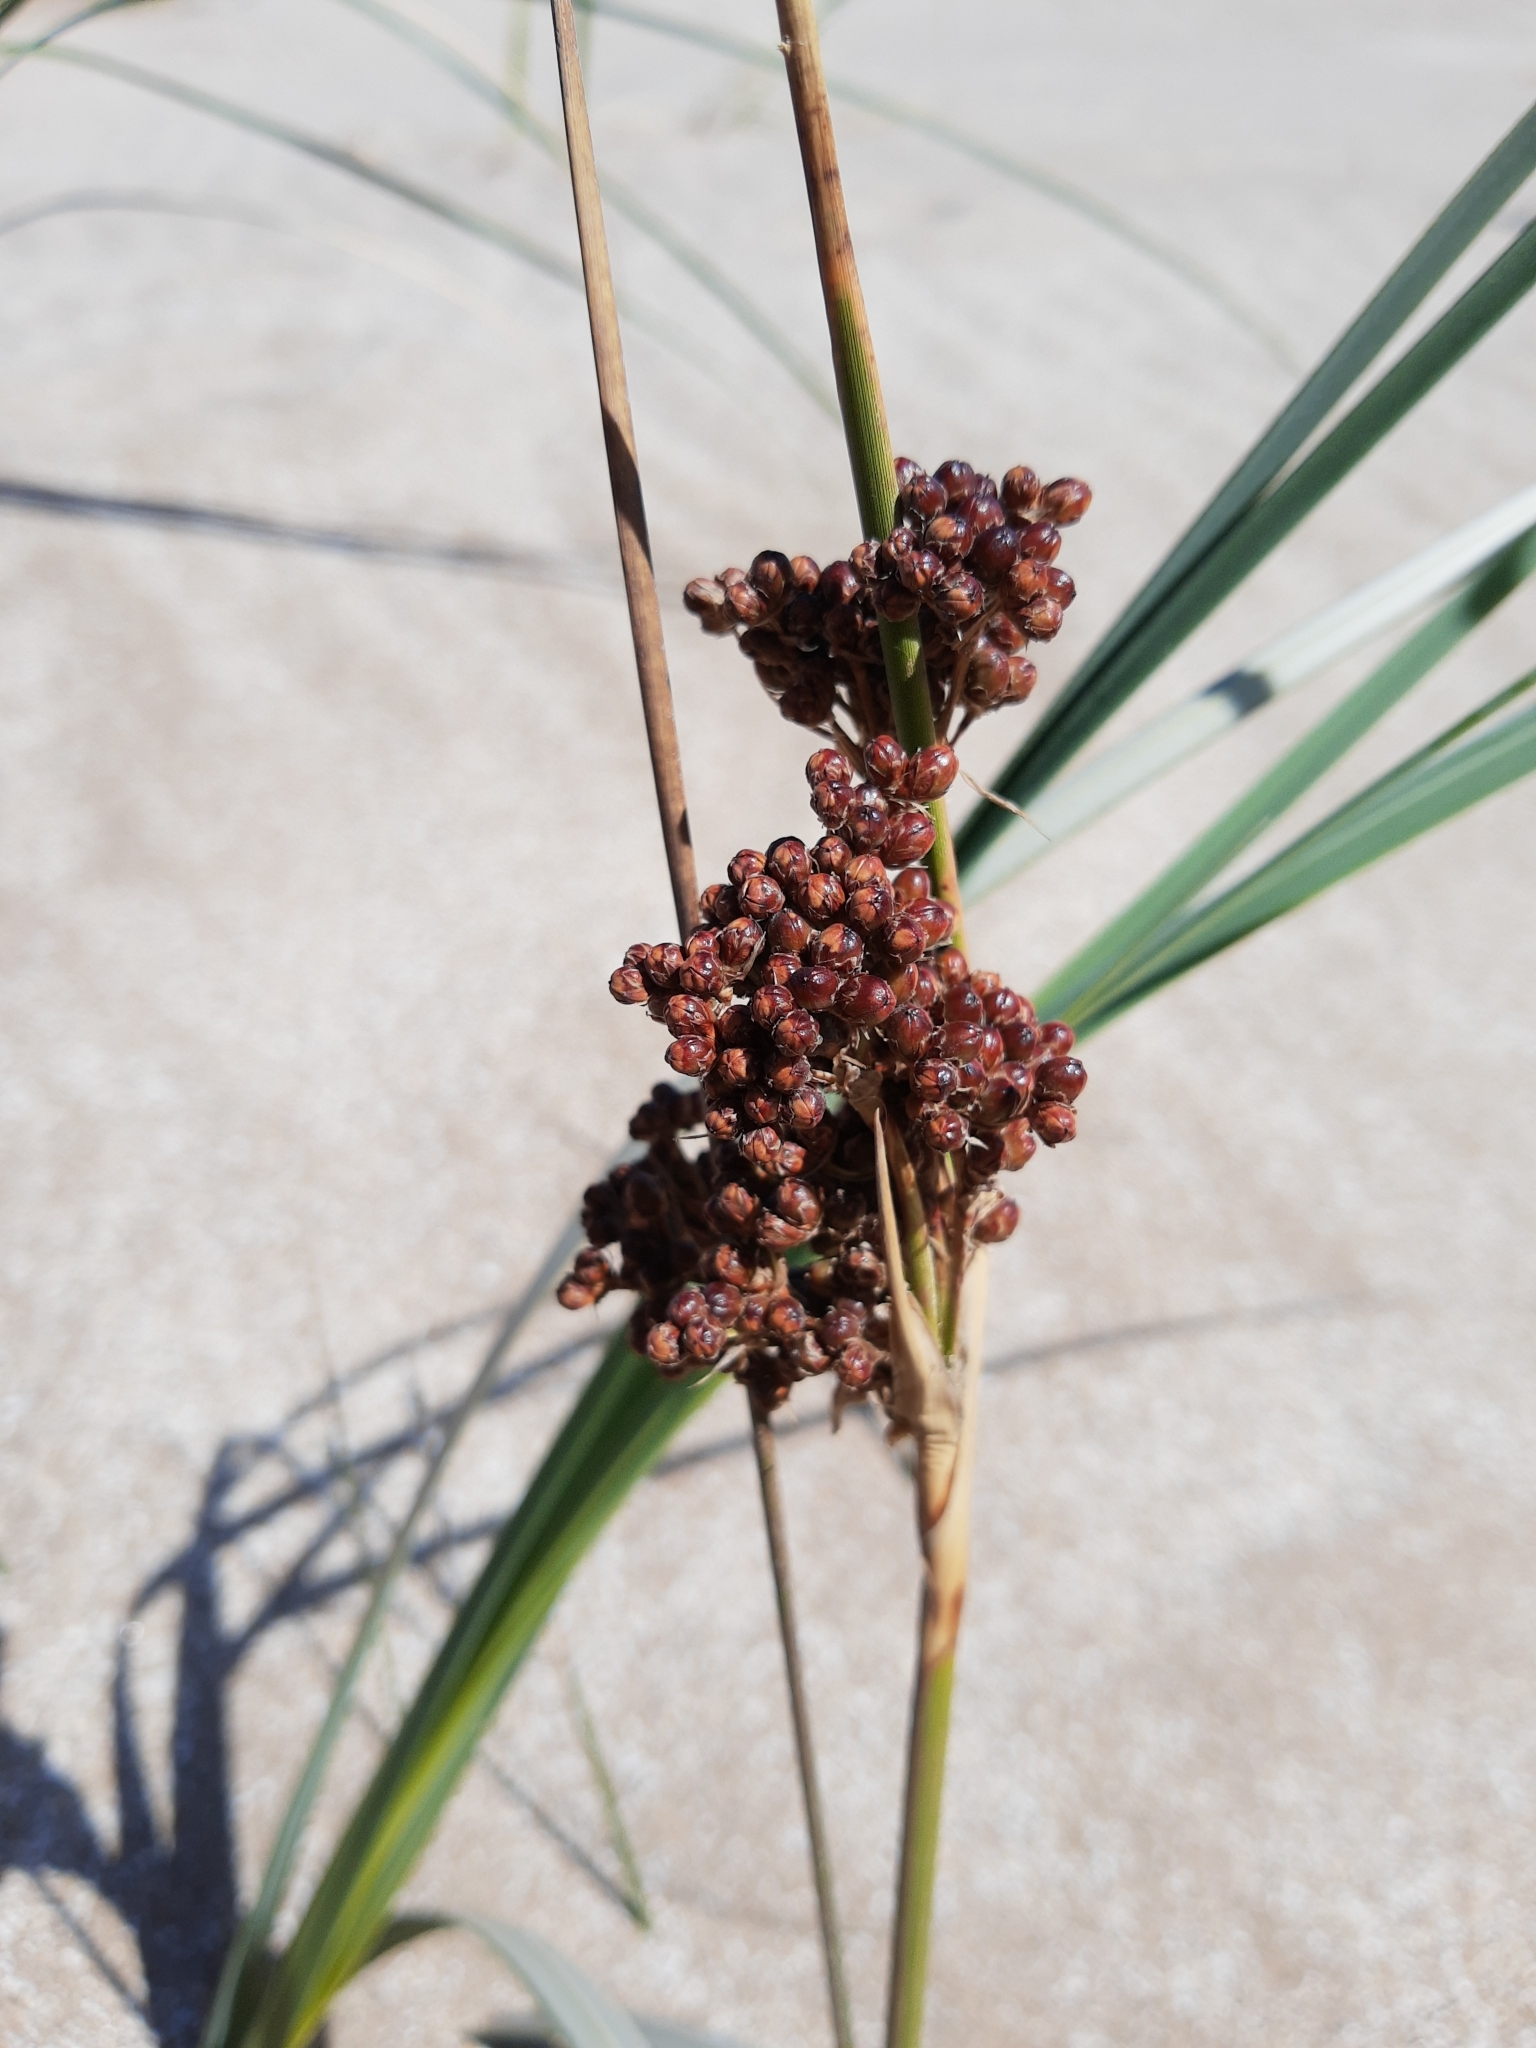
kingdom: Plantae
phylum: Tracheophyta
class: Liliopsida
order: Poales
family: Juncaceae
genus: Juncus
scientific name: Juncus acutus
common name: Sharp rush
